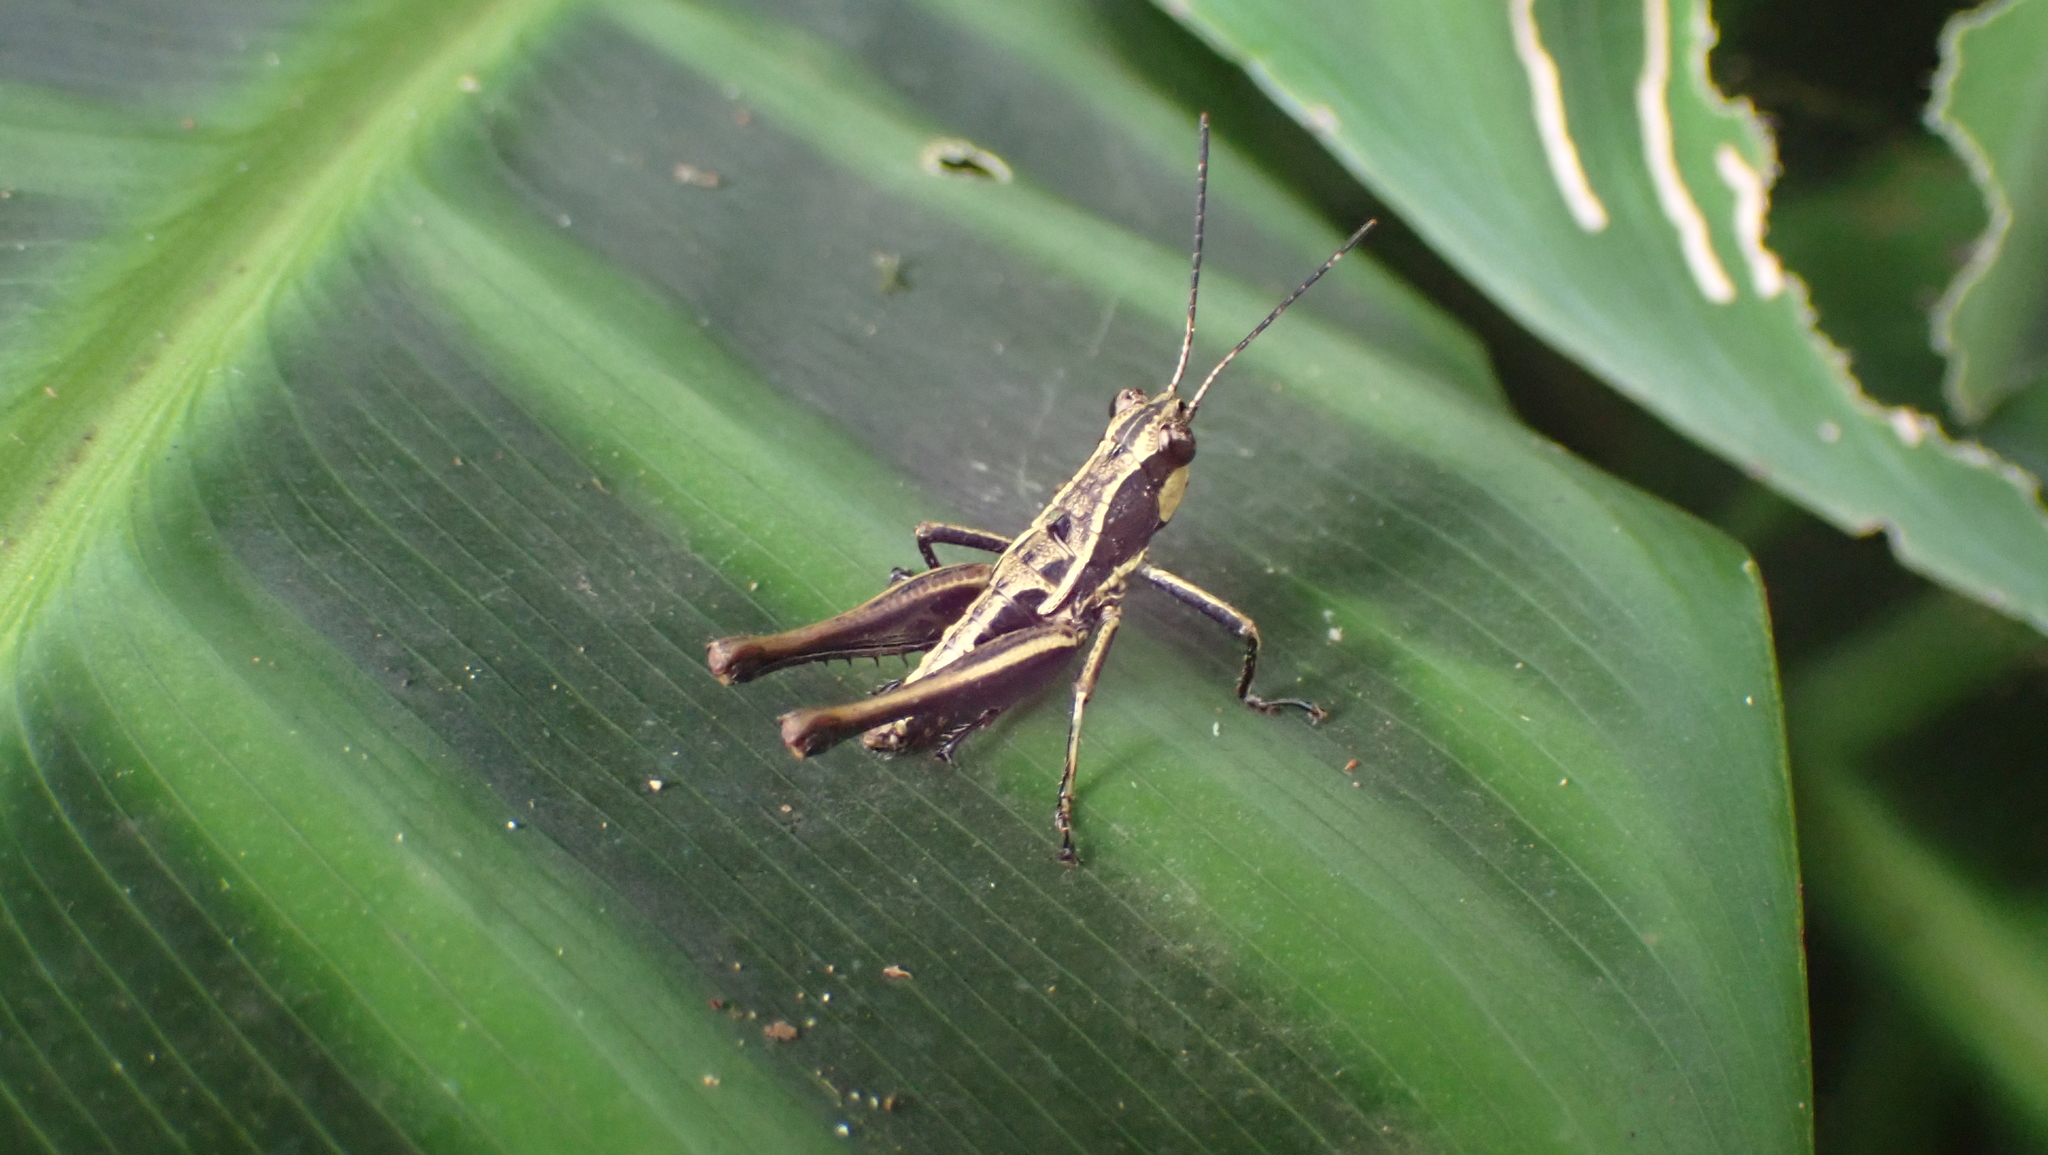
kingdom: Animalia
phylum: Arthropoda
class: Insecta
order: Orthoptera
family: Acrididae
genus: Microtylopteryx
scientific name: Microtylopteryx hebardi
